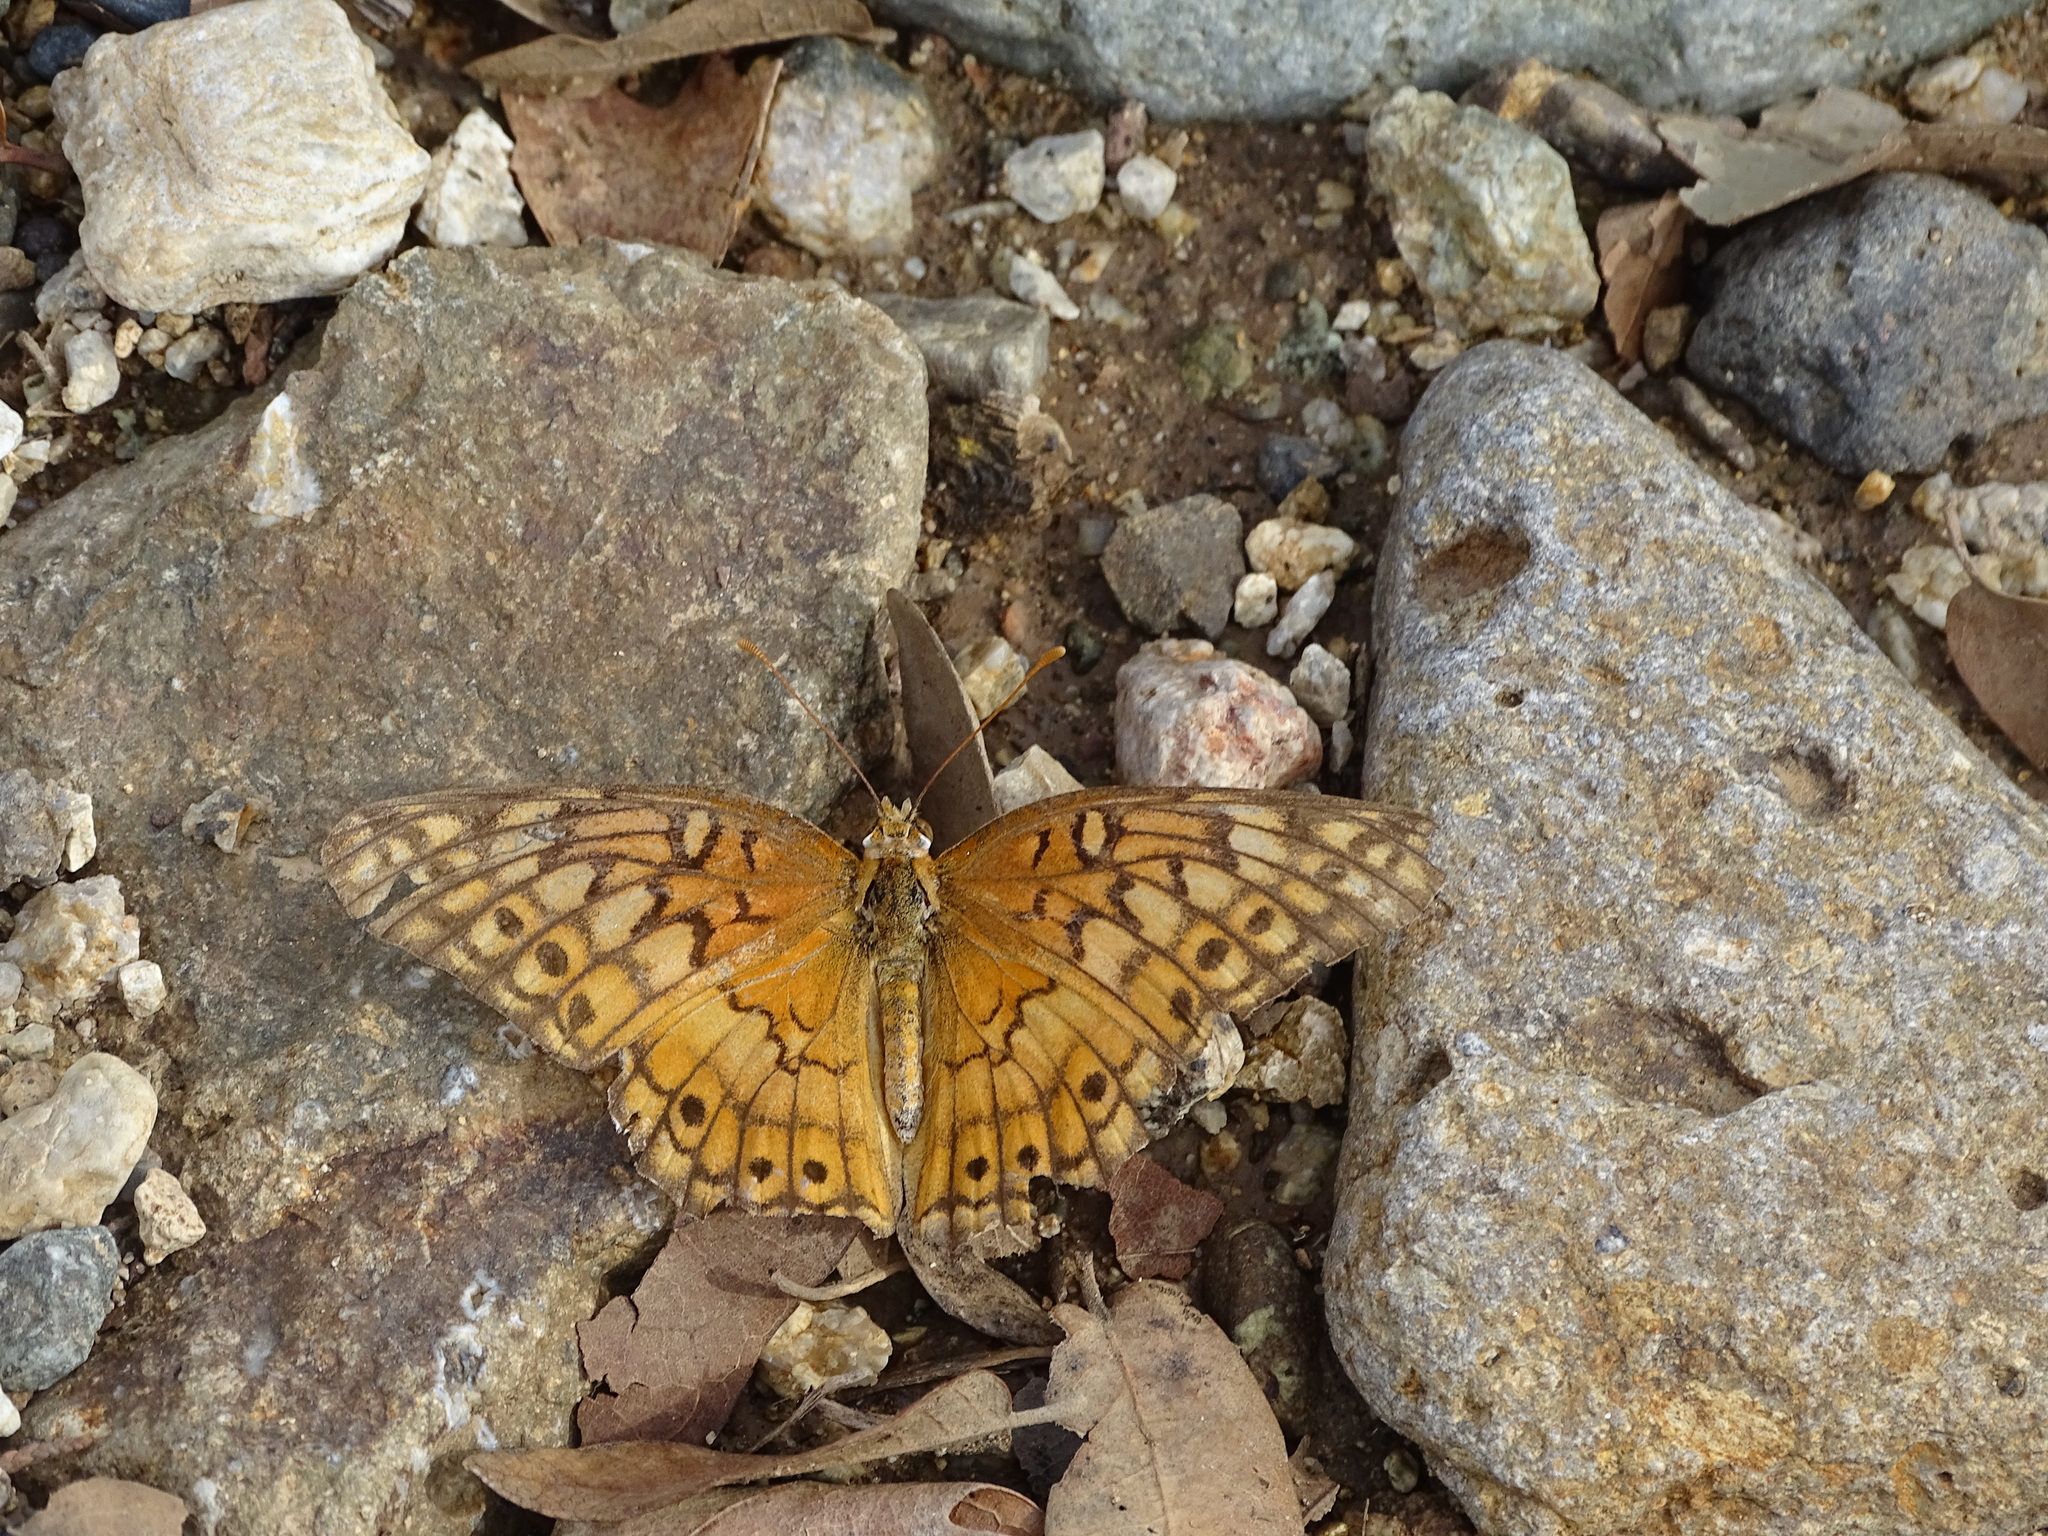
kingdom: Animalia
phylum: Arthropoda
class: Insecta
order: Lepidoptera
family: Nymphalidae
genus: Euptoieta
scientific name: Euptoieta claudia
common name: Variegated fritillary
